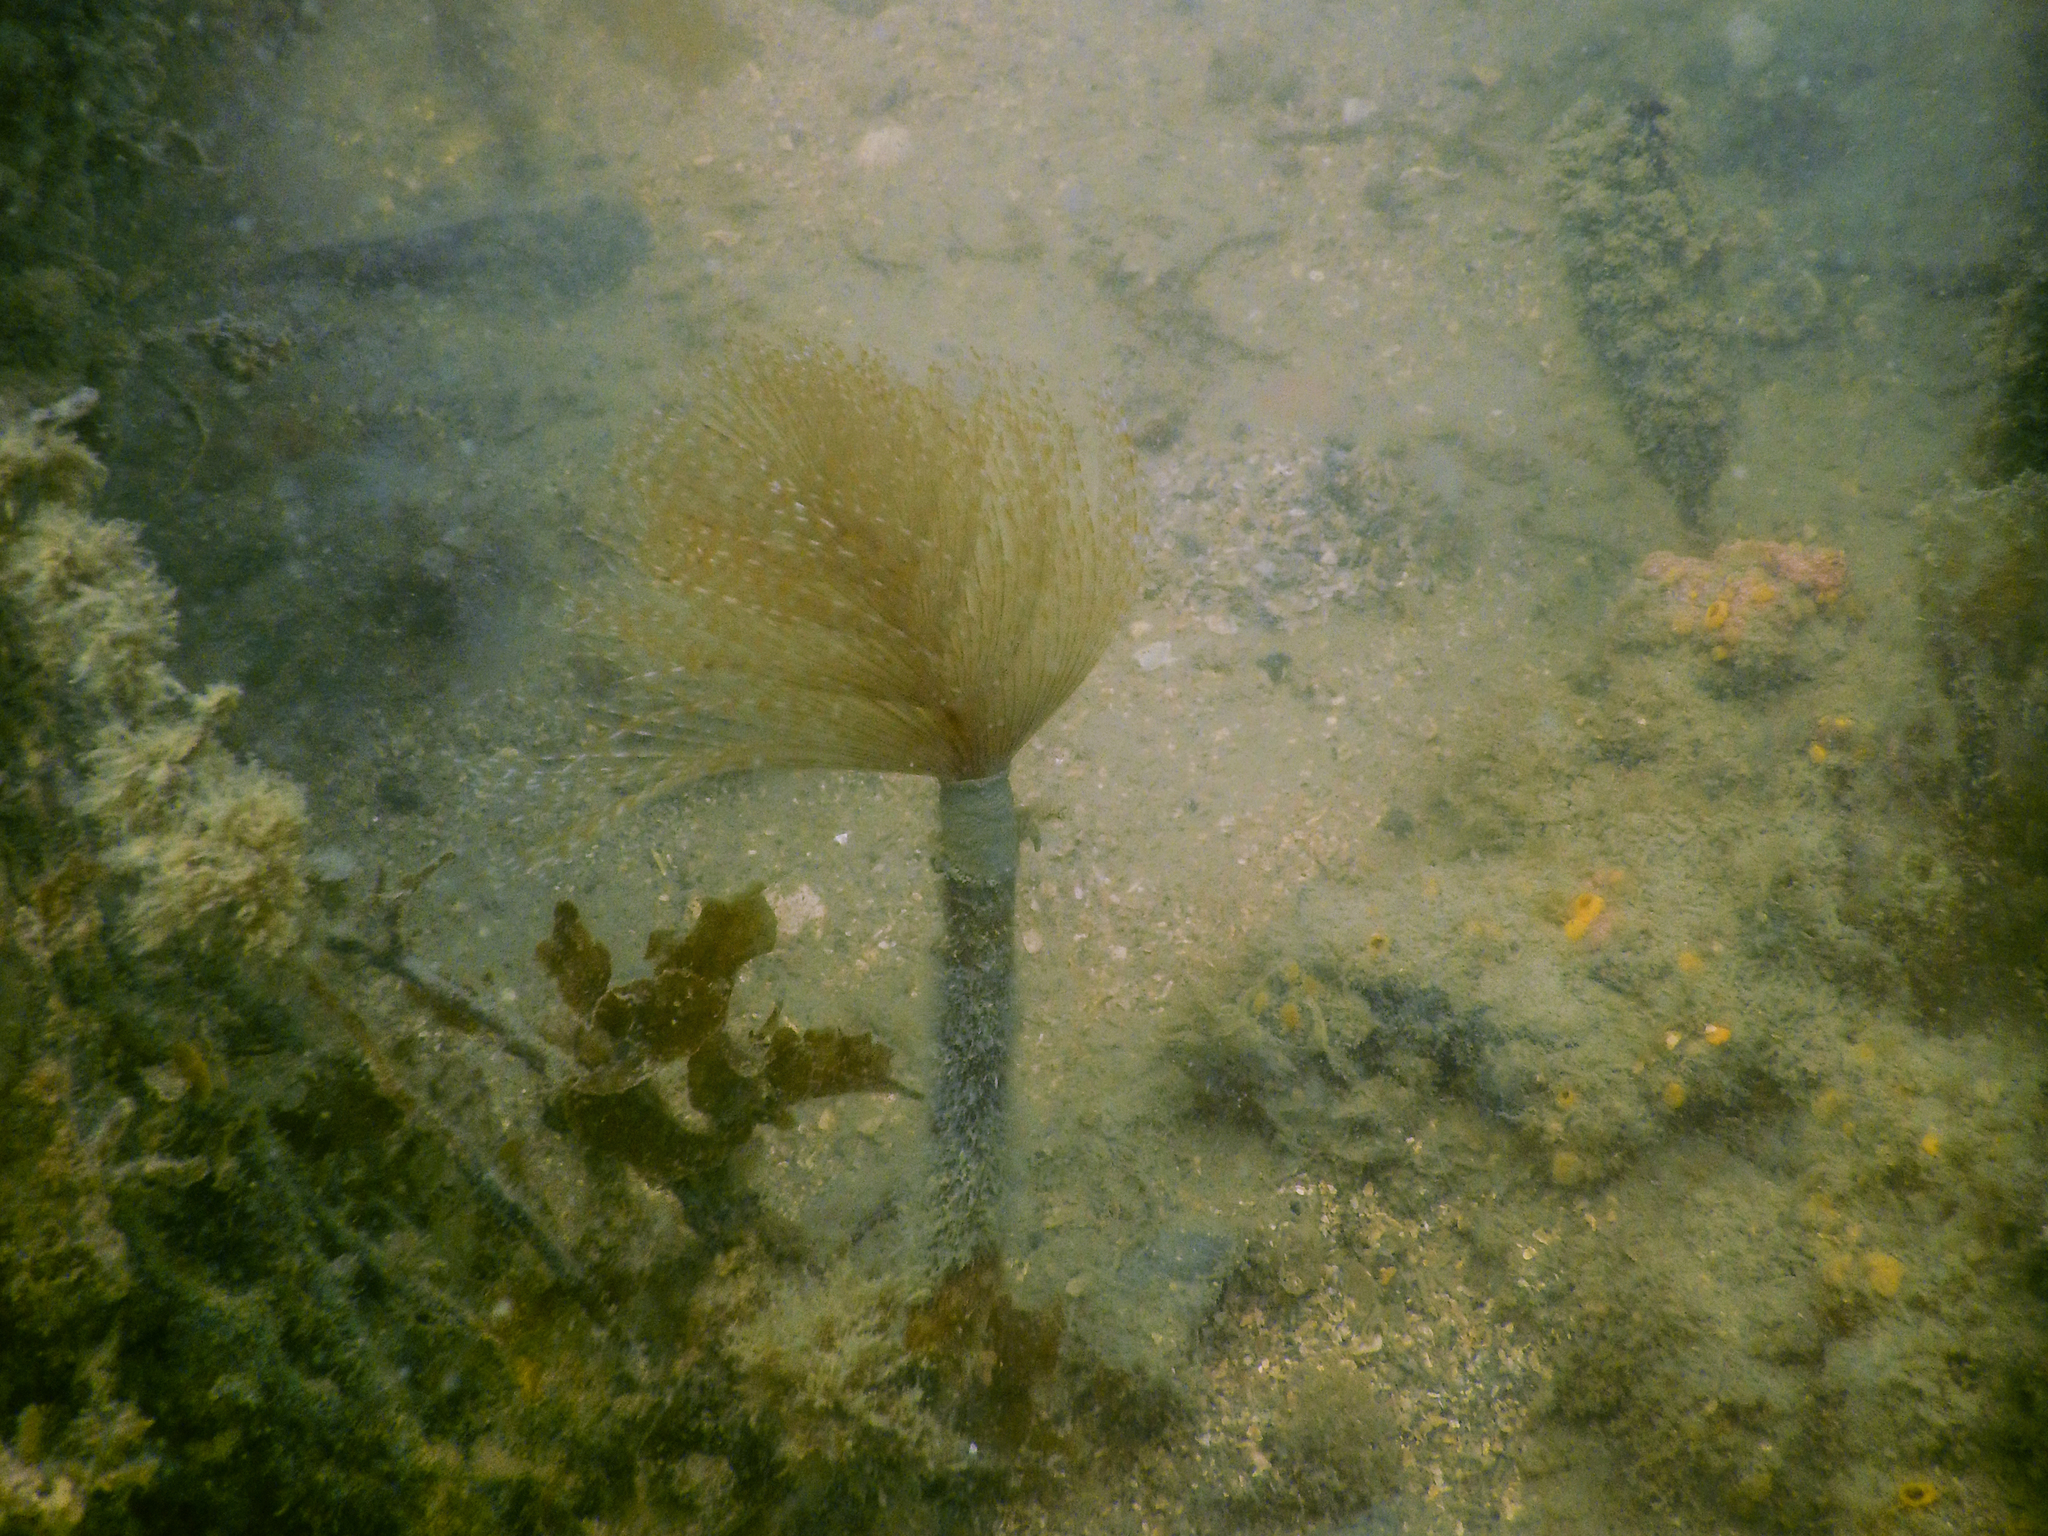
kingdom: Animalia
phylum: Annelida
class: Polychaeta
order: Sabellida
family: Sabellidae
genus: Sabella
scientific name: Sabella spallanzanii
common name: Feather duster worm
